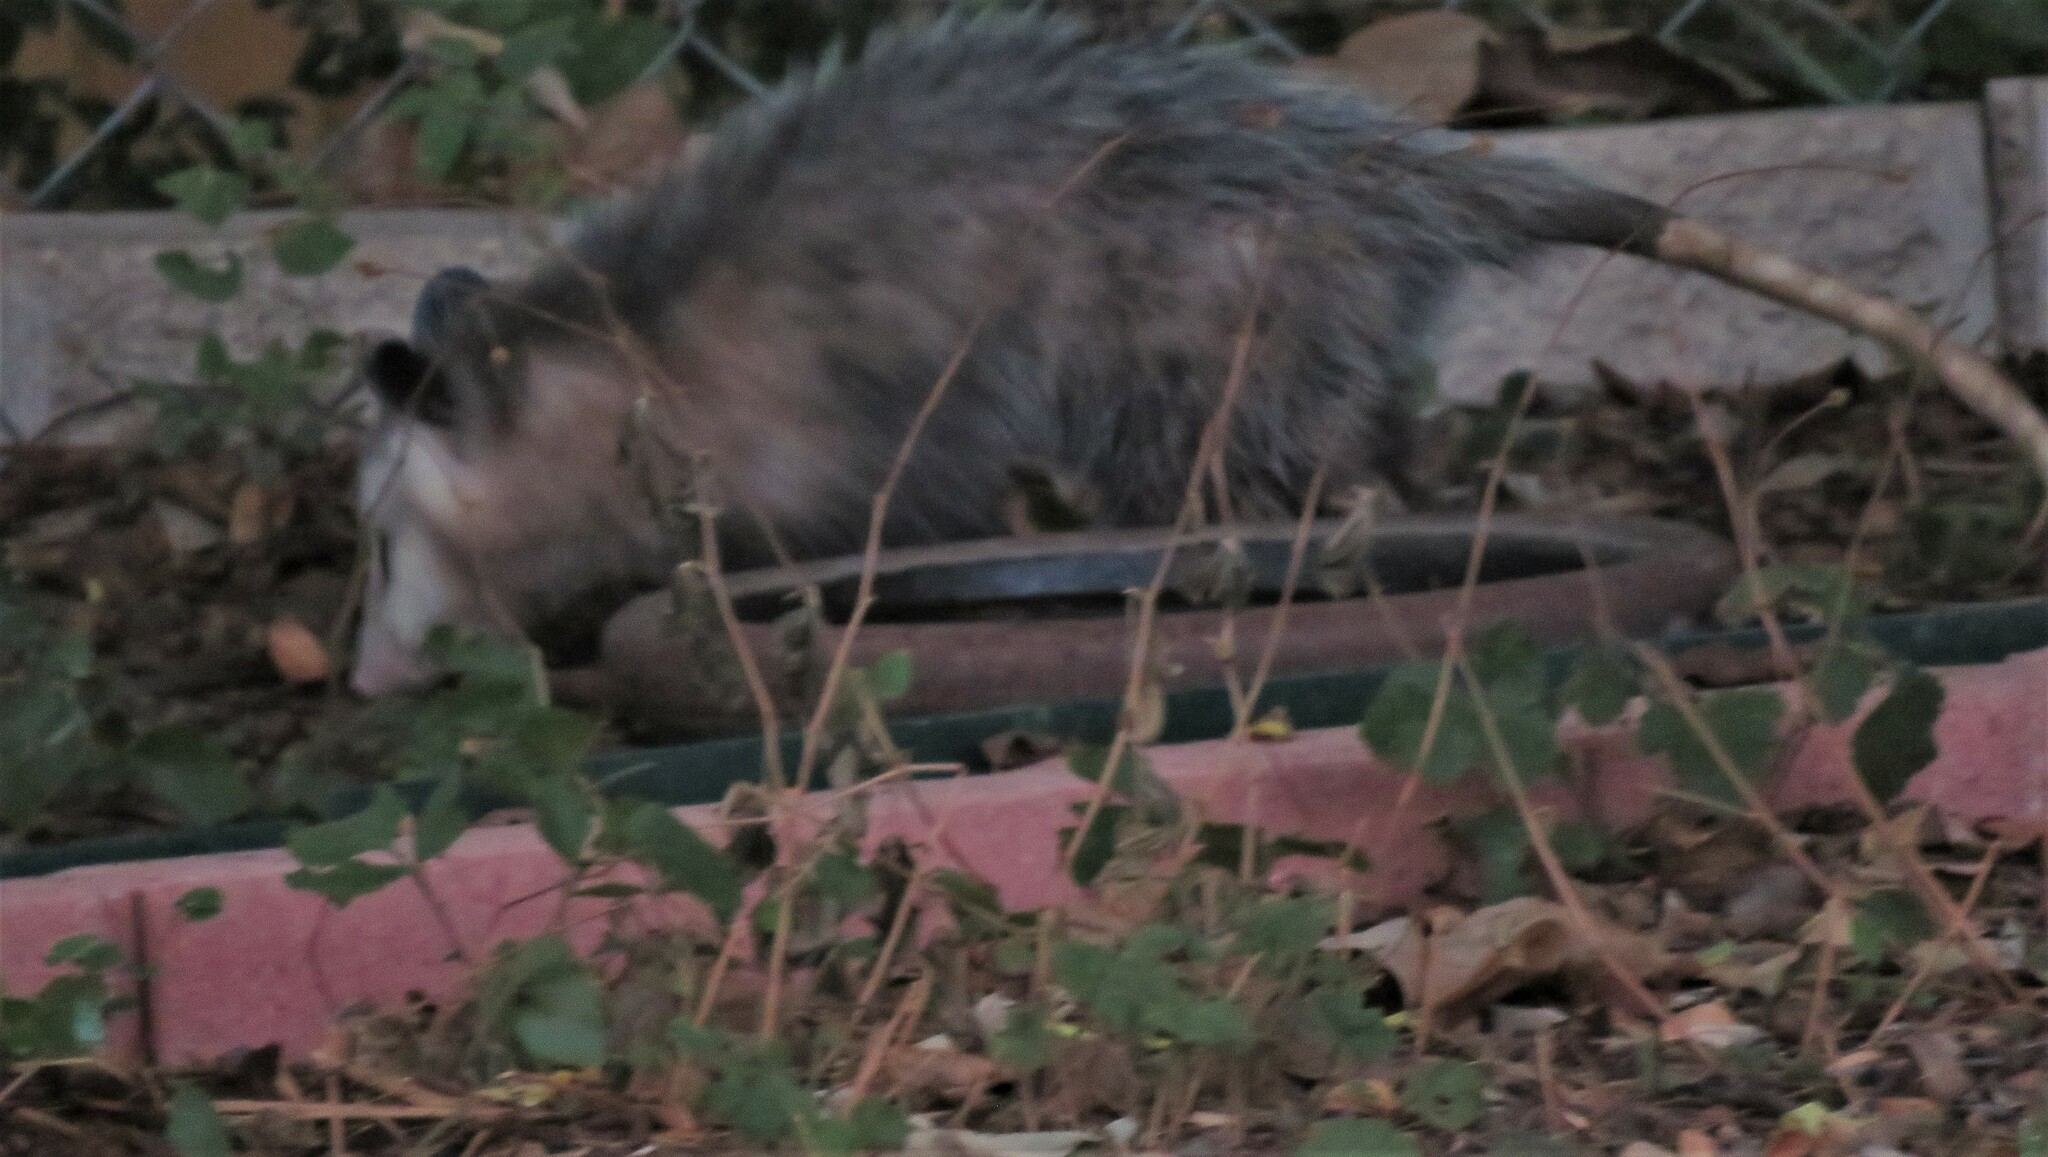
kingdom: Animalia
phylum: Chordata
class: Mammalia
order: Didelphimorphia
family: Didelphidae
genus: Didelphis
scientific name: Didelphis virginiana
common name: Virginia opossum
